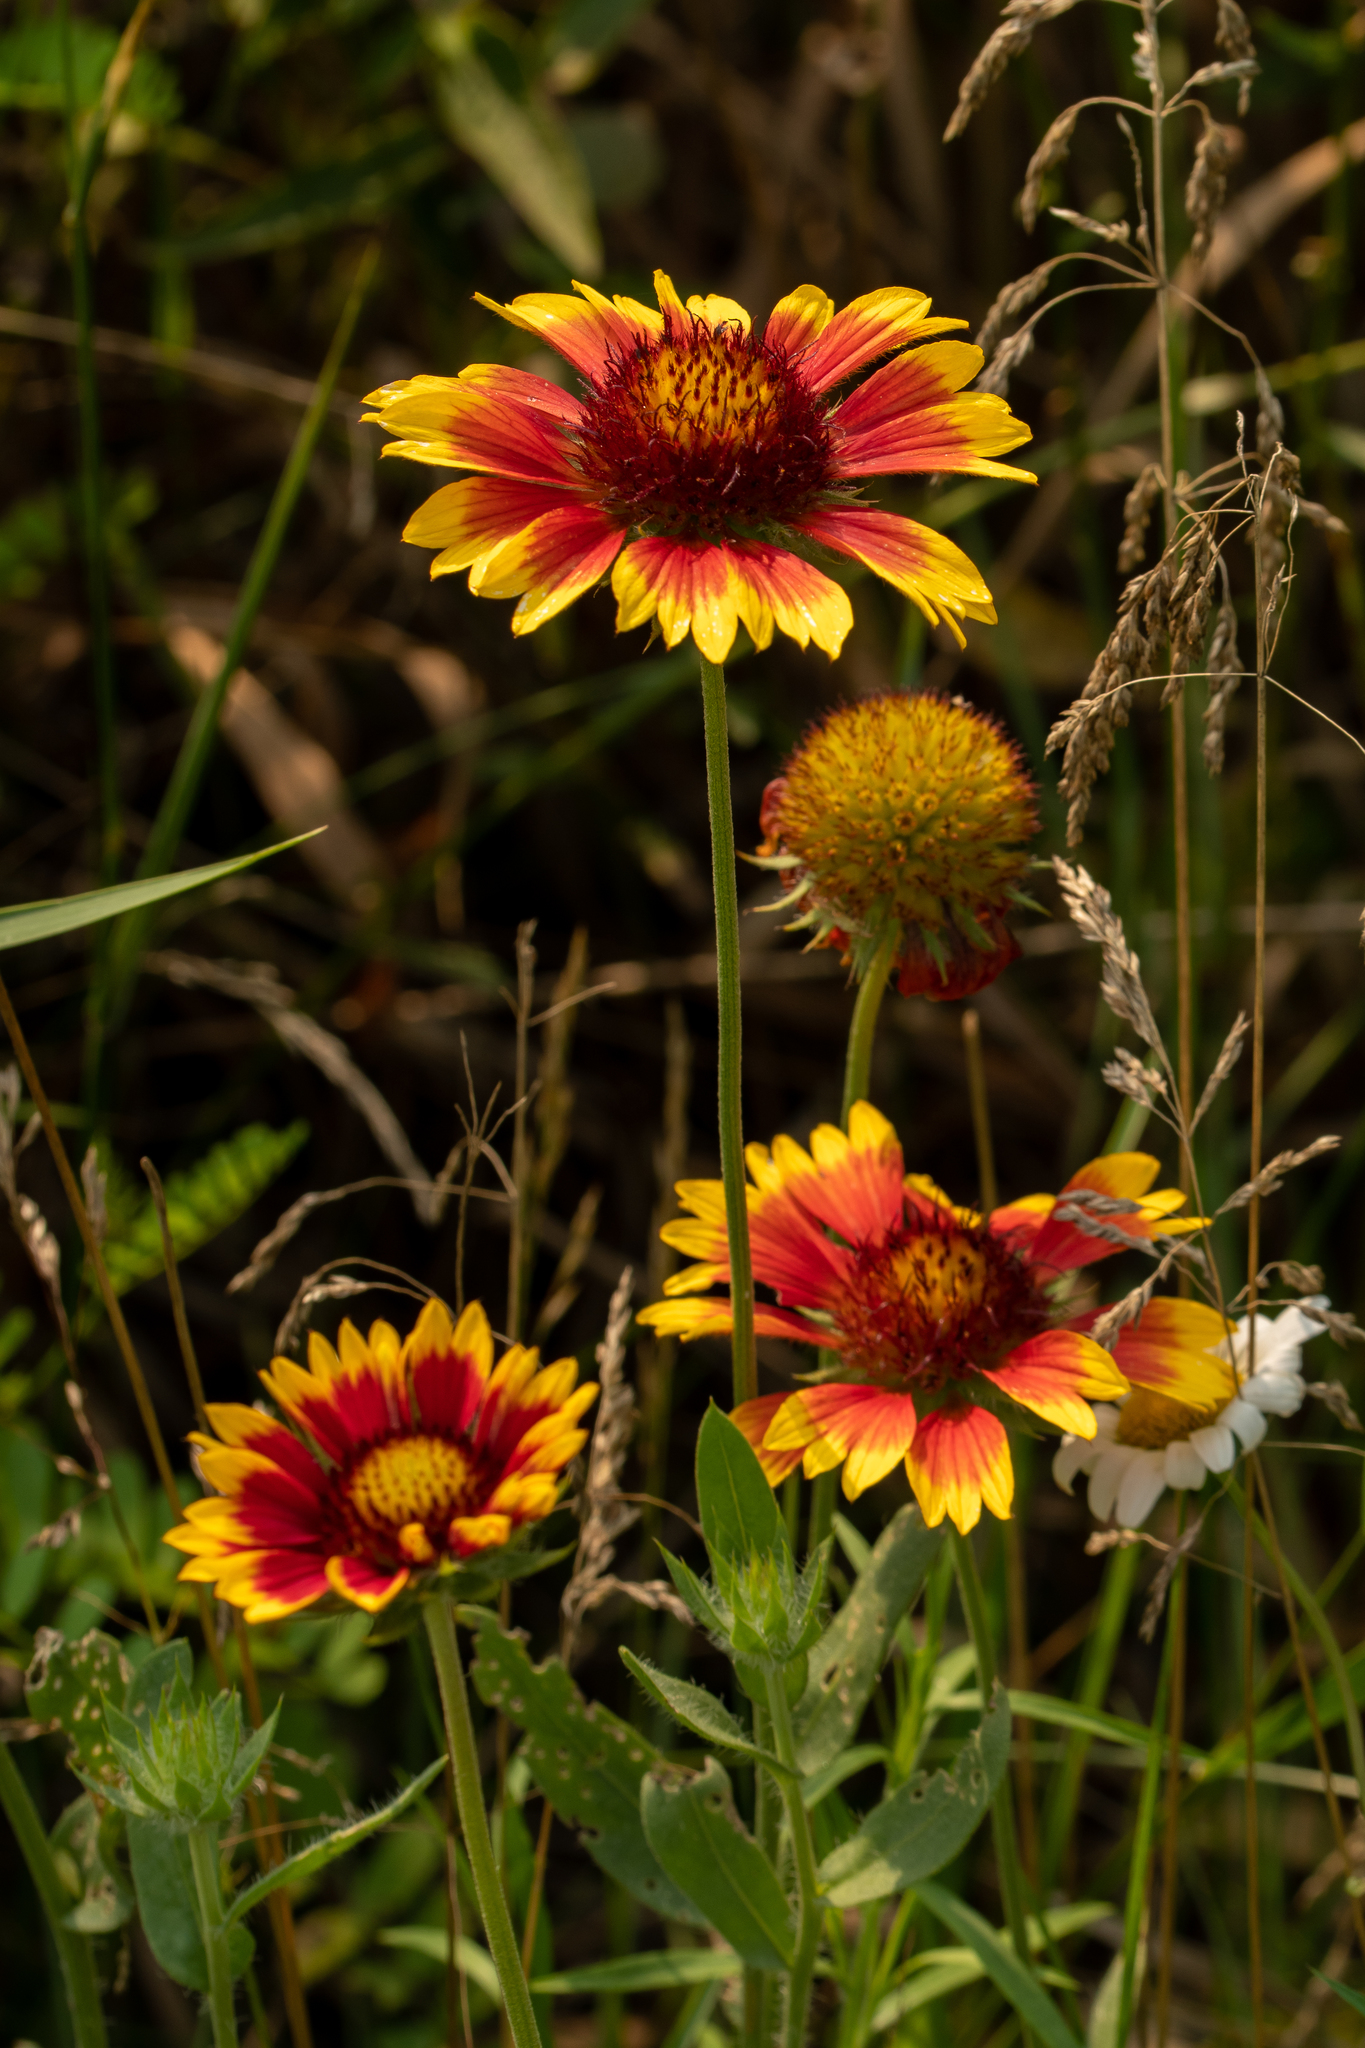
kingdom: Plantae
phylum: Tracheophyta
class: Magnoliopsida
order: Asterales
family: Asteraceae
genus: Gaillardia
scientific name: Gaillardia pulchella
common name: Firewheel
